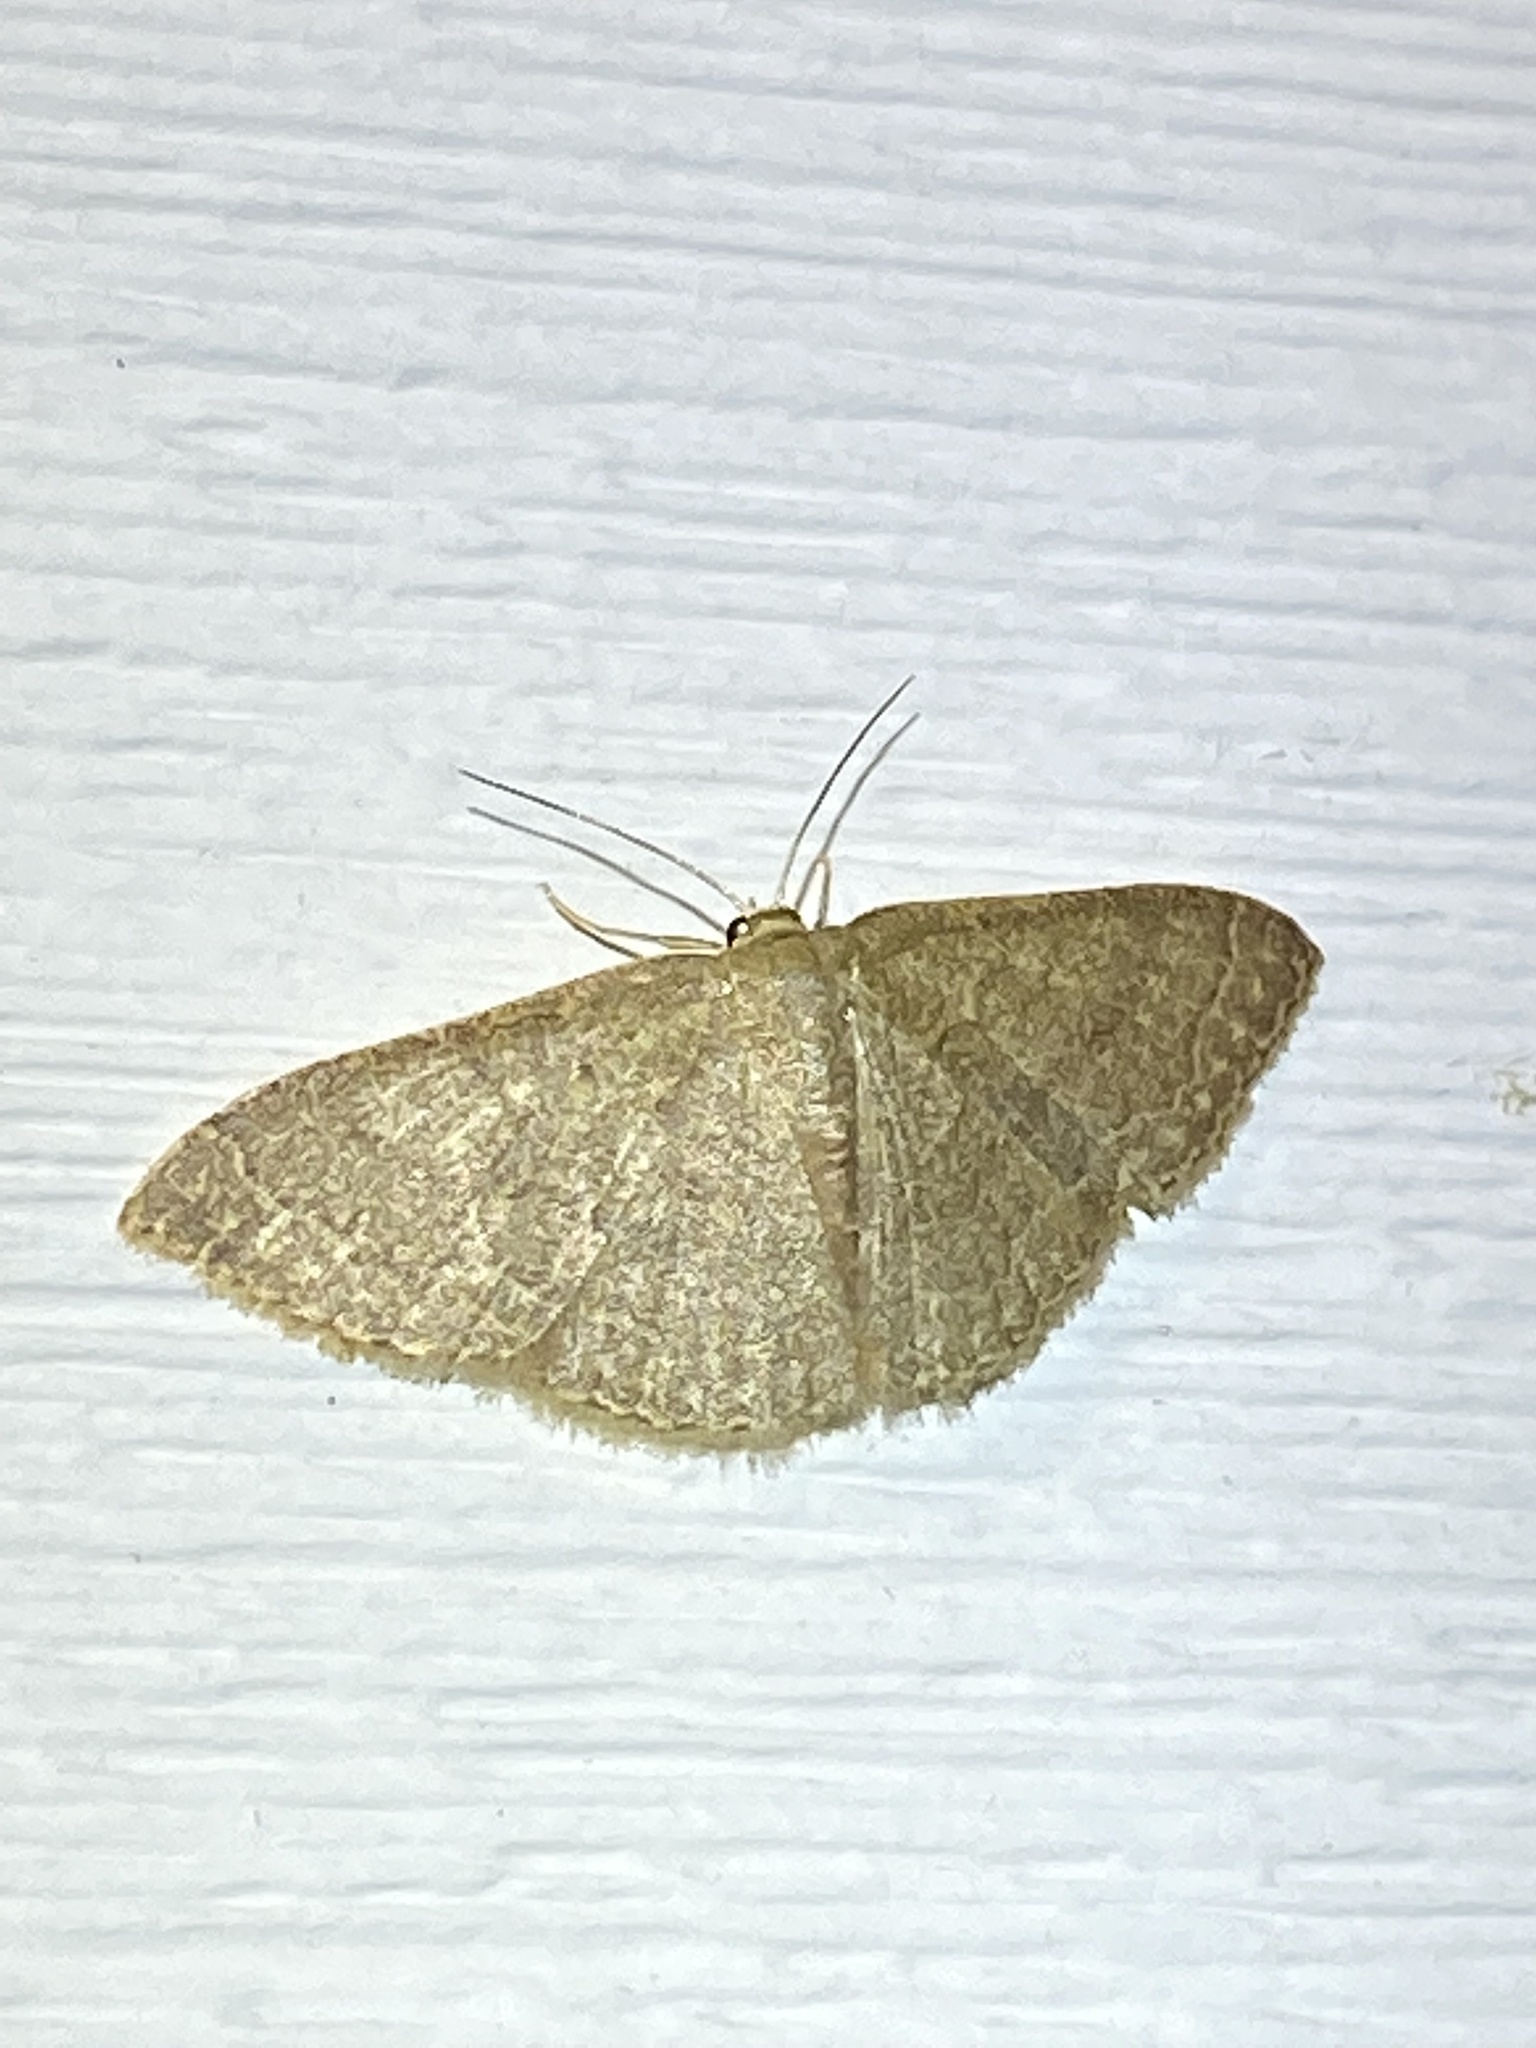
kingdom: Animalia
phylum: Arthropoda
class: Insecta
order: Lepidoptera
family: Geometridae
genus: Pleuroprucha
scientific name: Pleuroprucha insulsaria
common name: Common tan wave
